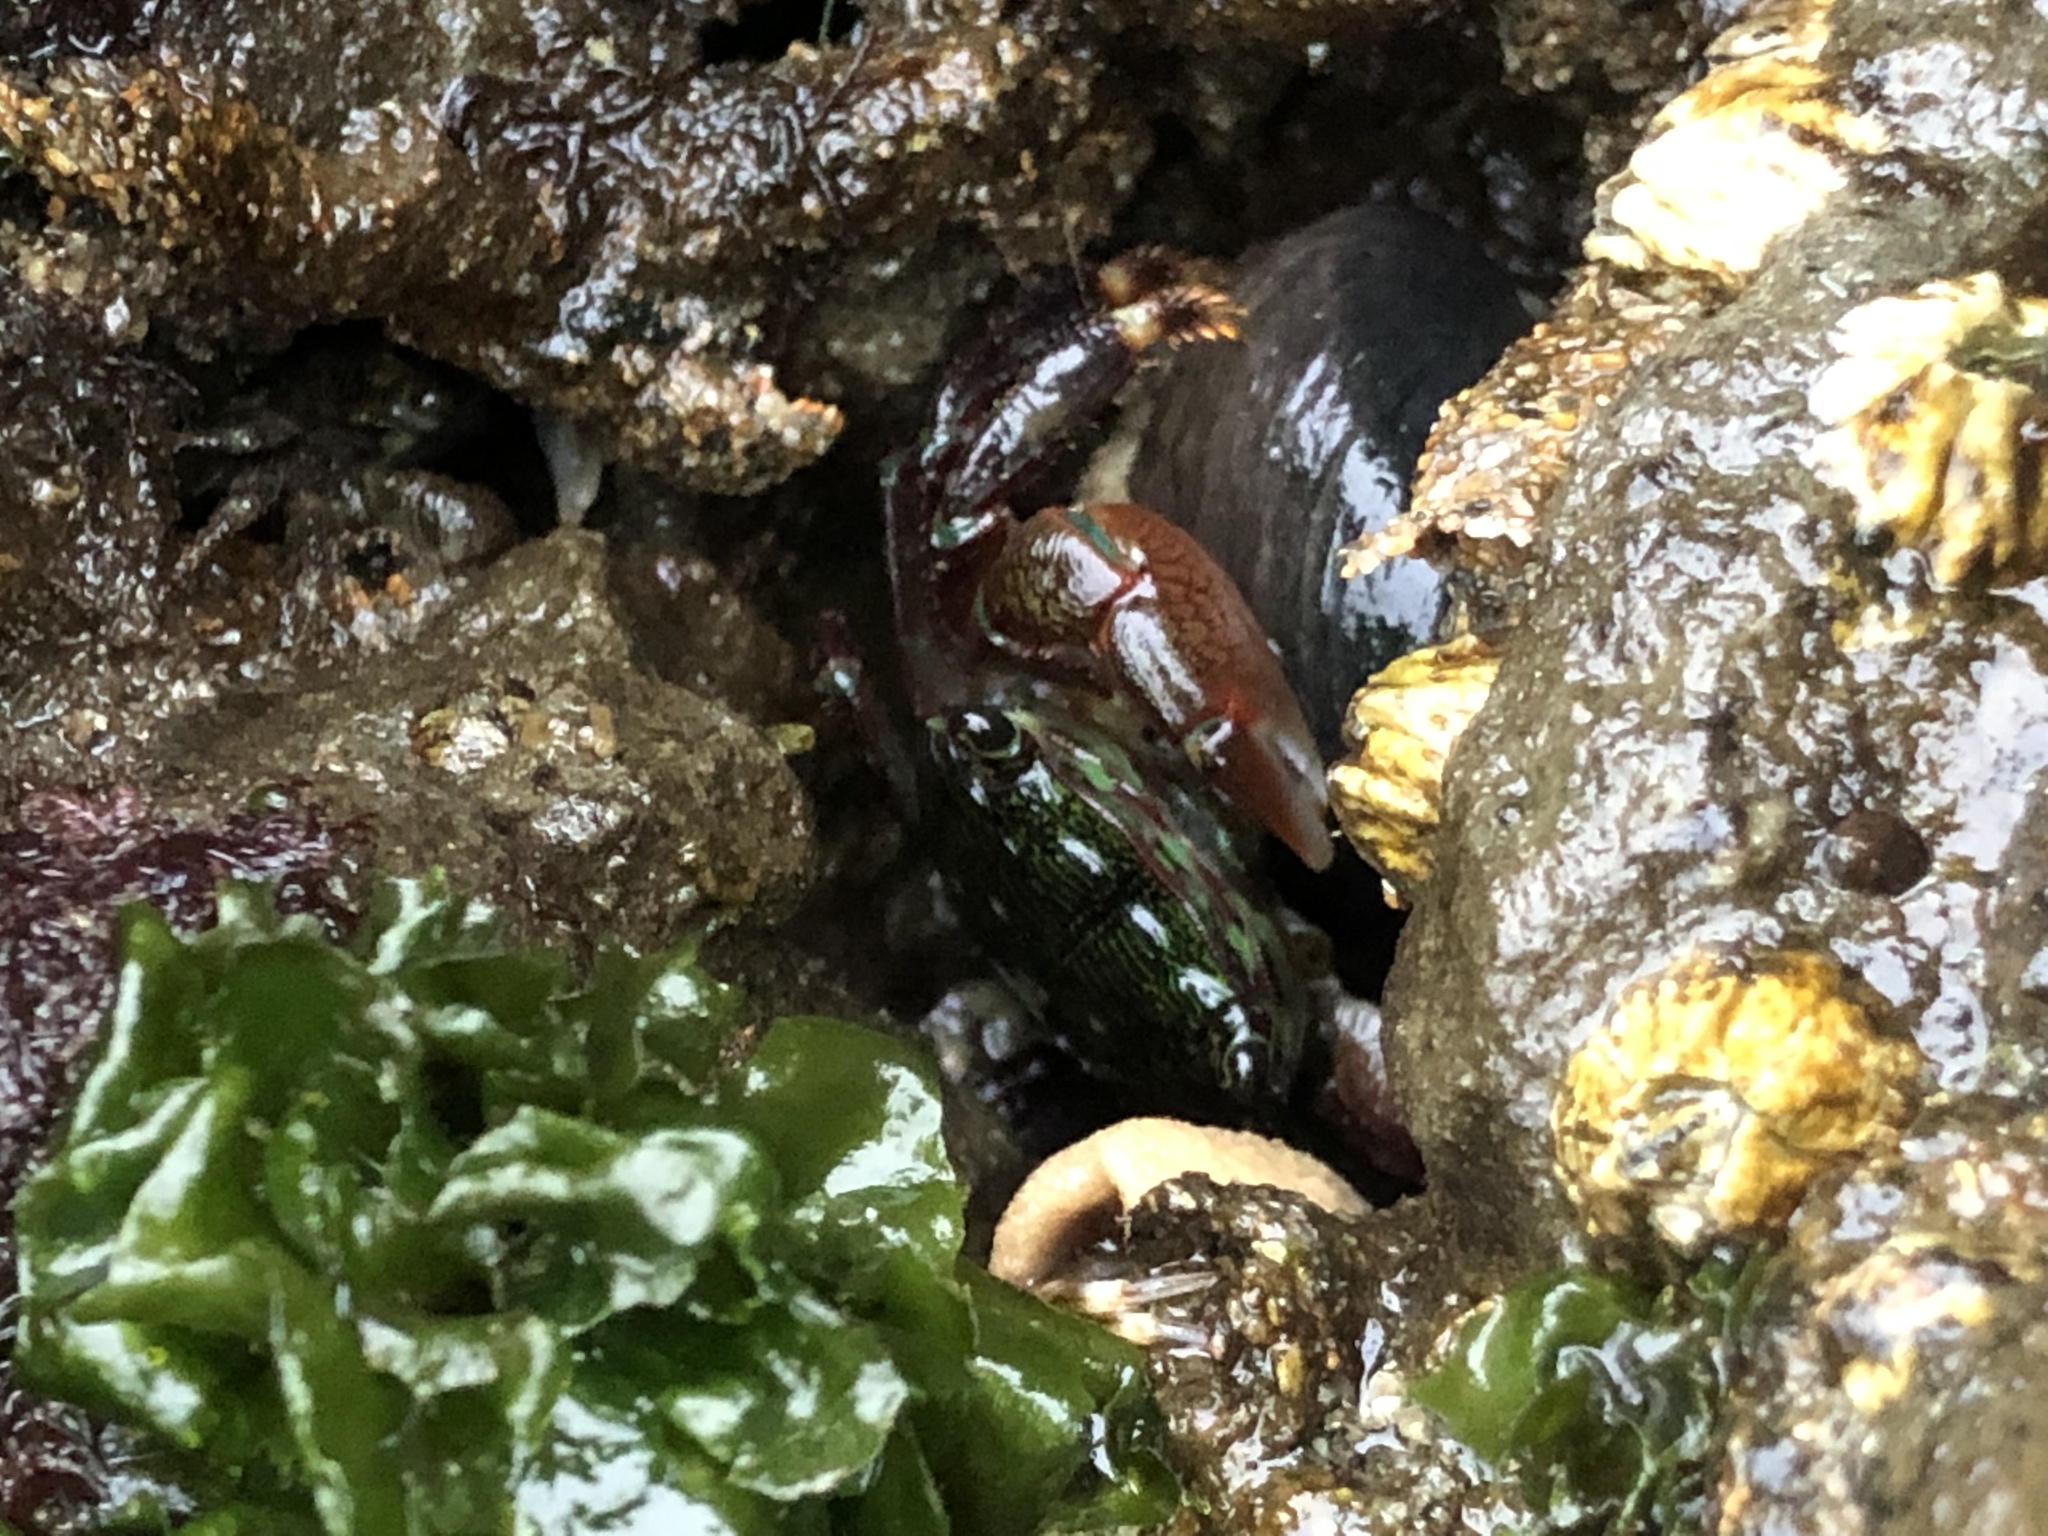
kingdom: Animalia
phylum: Arthropoda
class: Malacostraca
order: Decapoda
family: Grapsidae
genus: Pachygrapsus
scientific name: Pachygrapsus crassipes
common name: Striped shore crab
